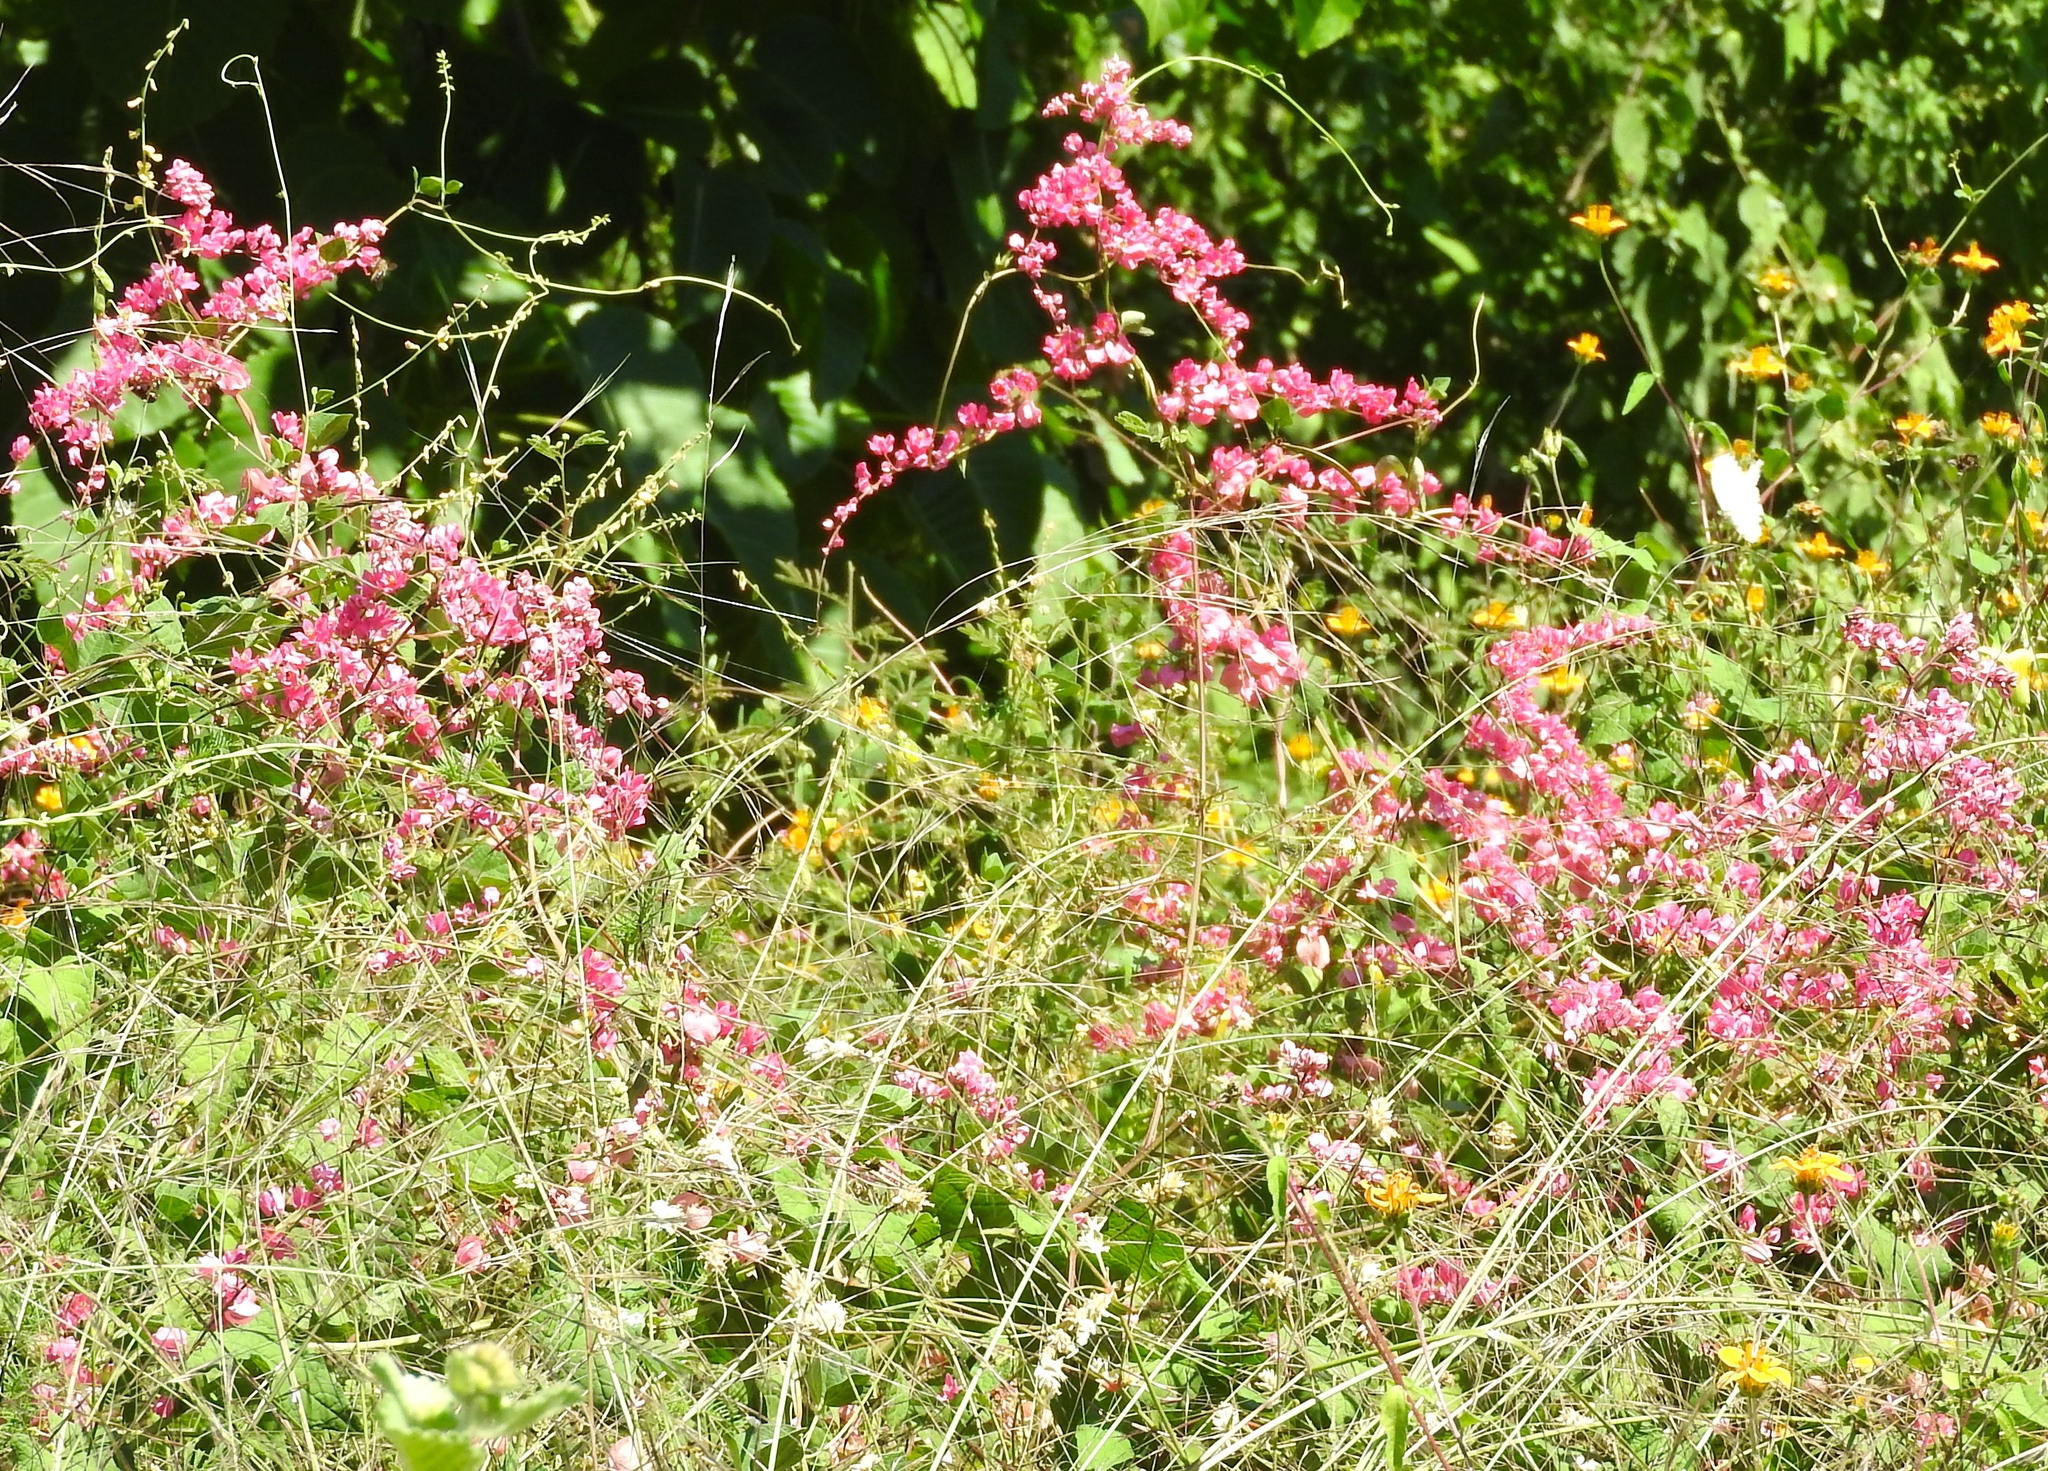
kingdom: Plantae
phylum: Tracheophyta
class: Magnoliopsida
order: Caryophyllales
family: Polygonaceae
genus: Antigonon
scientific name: Antigonon leptopus
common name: Coral vine
